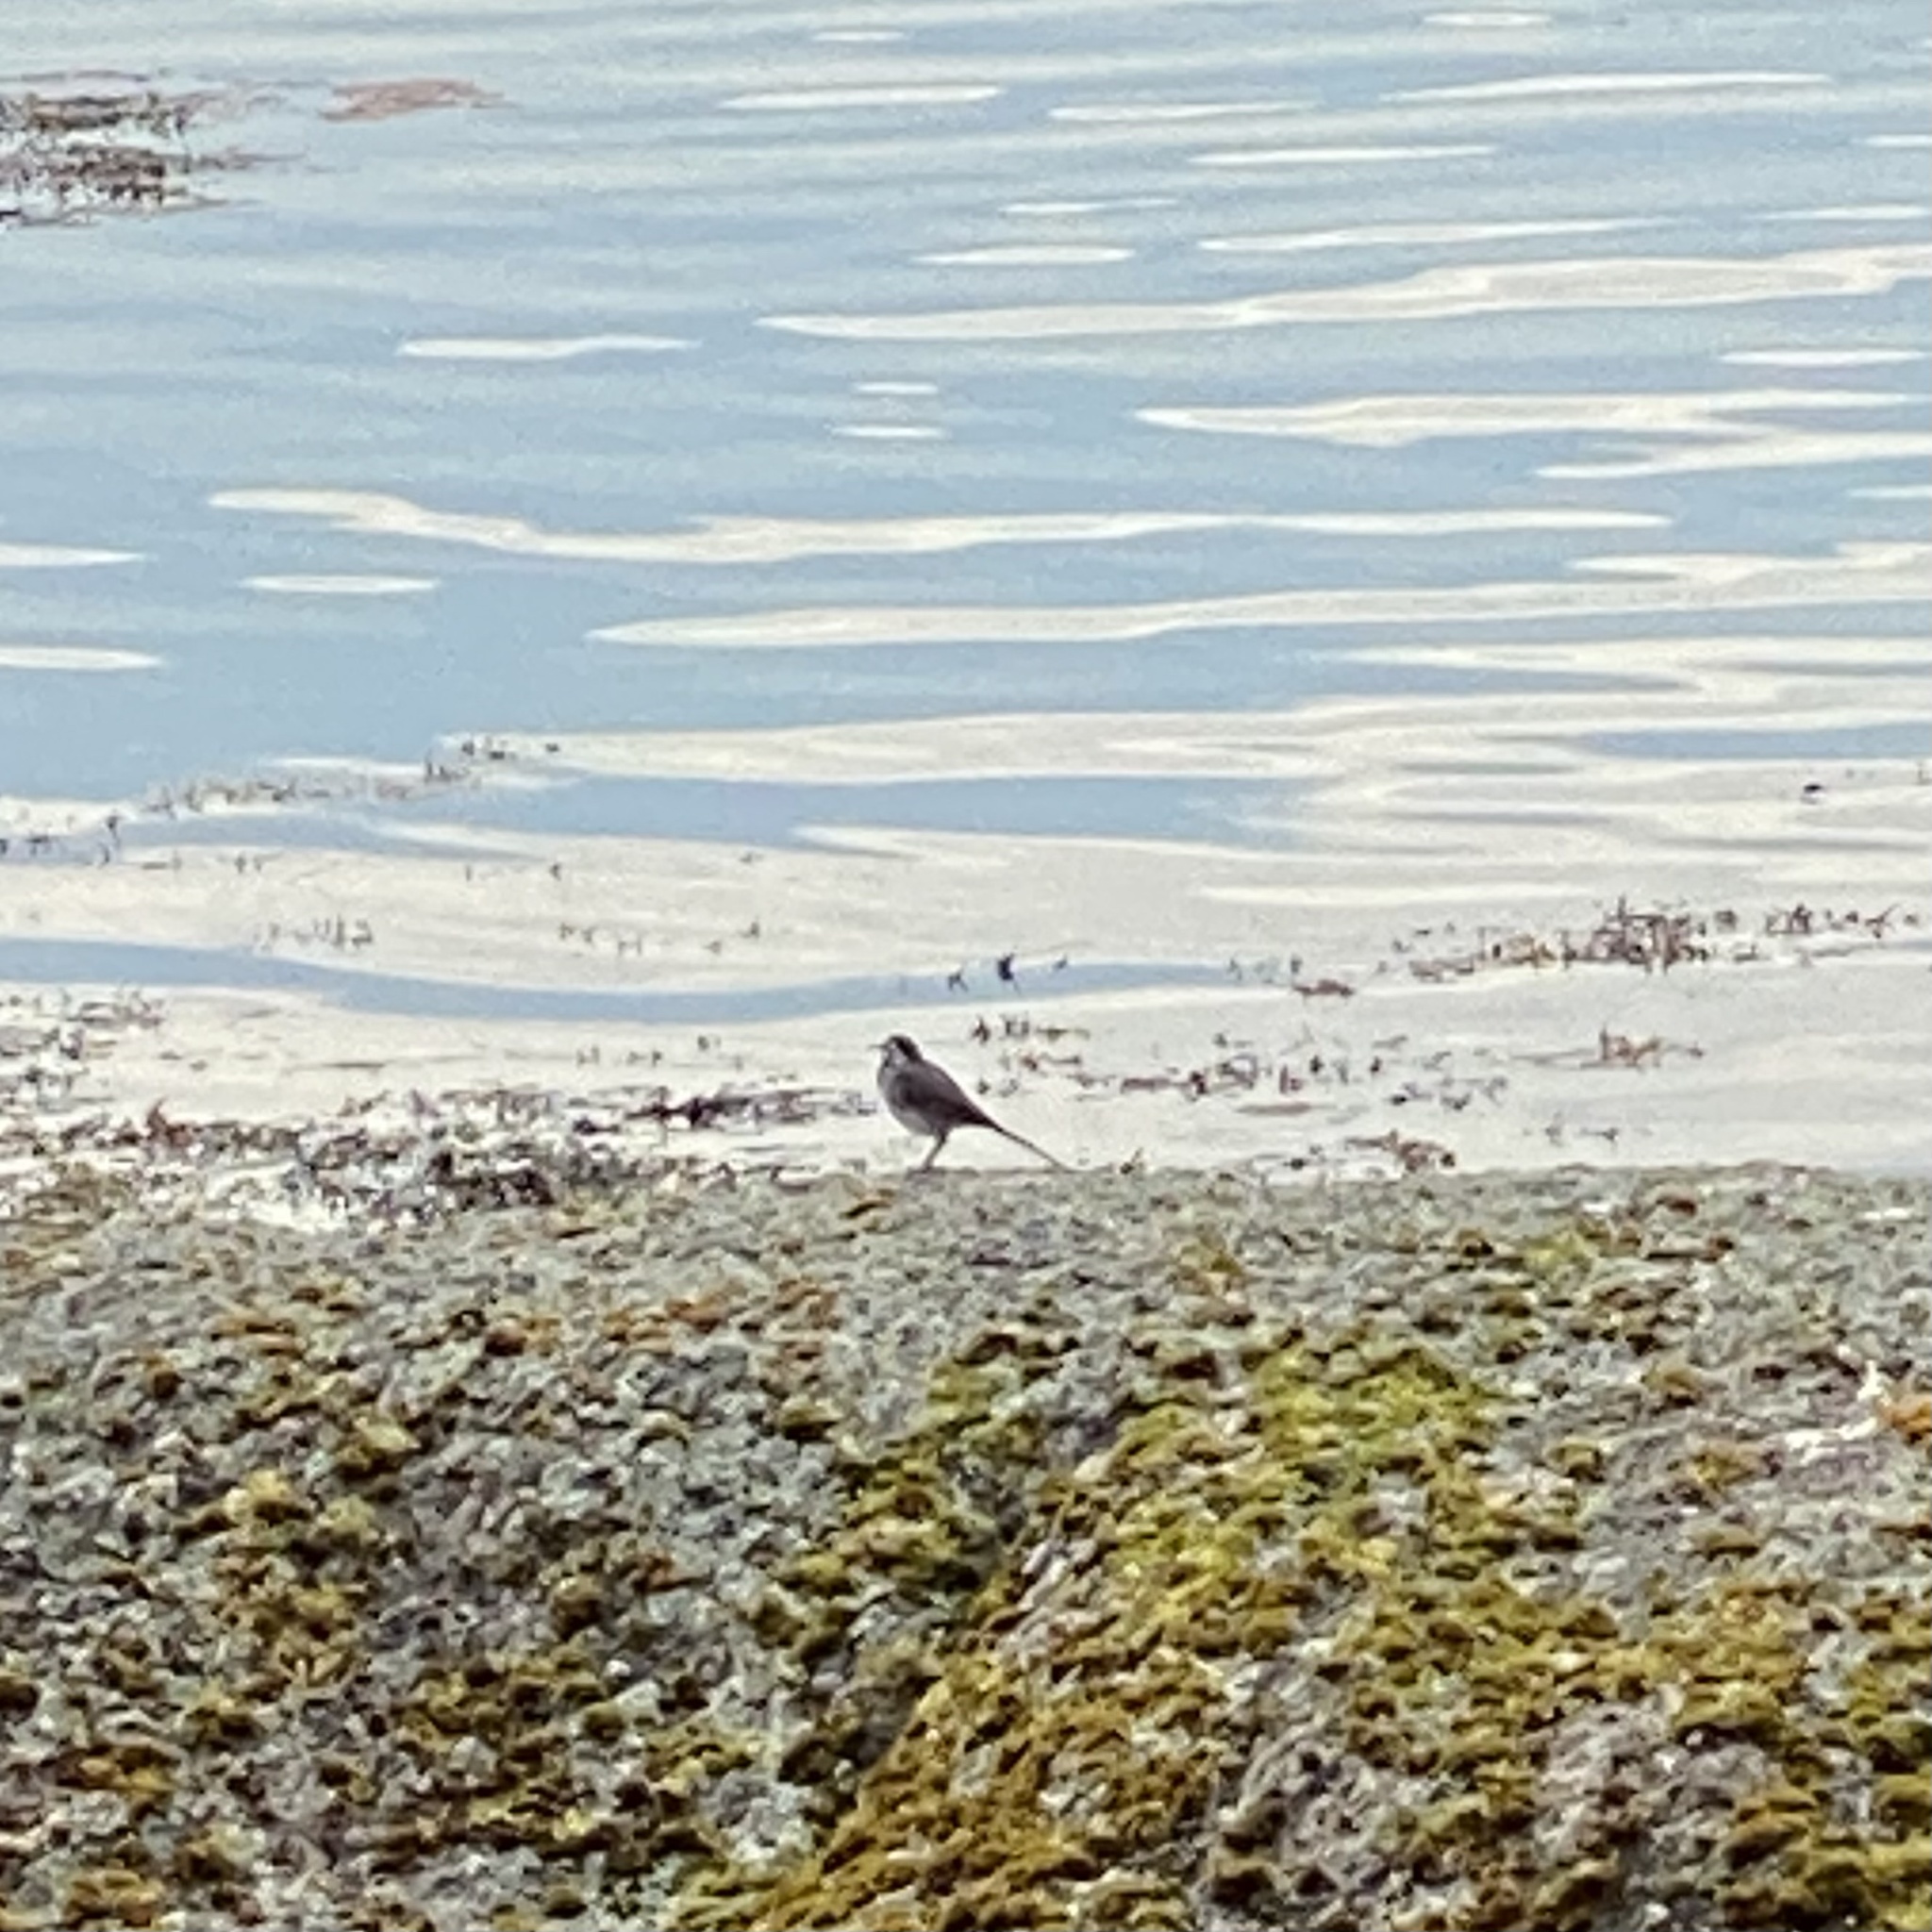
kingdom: Animalia
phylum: Chordata
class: Aves
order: Passeriformes
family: Motacillidae
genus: Motacilla
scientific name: Motacilla alba
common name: White wagtail
